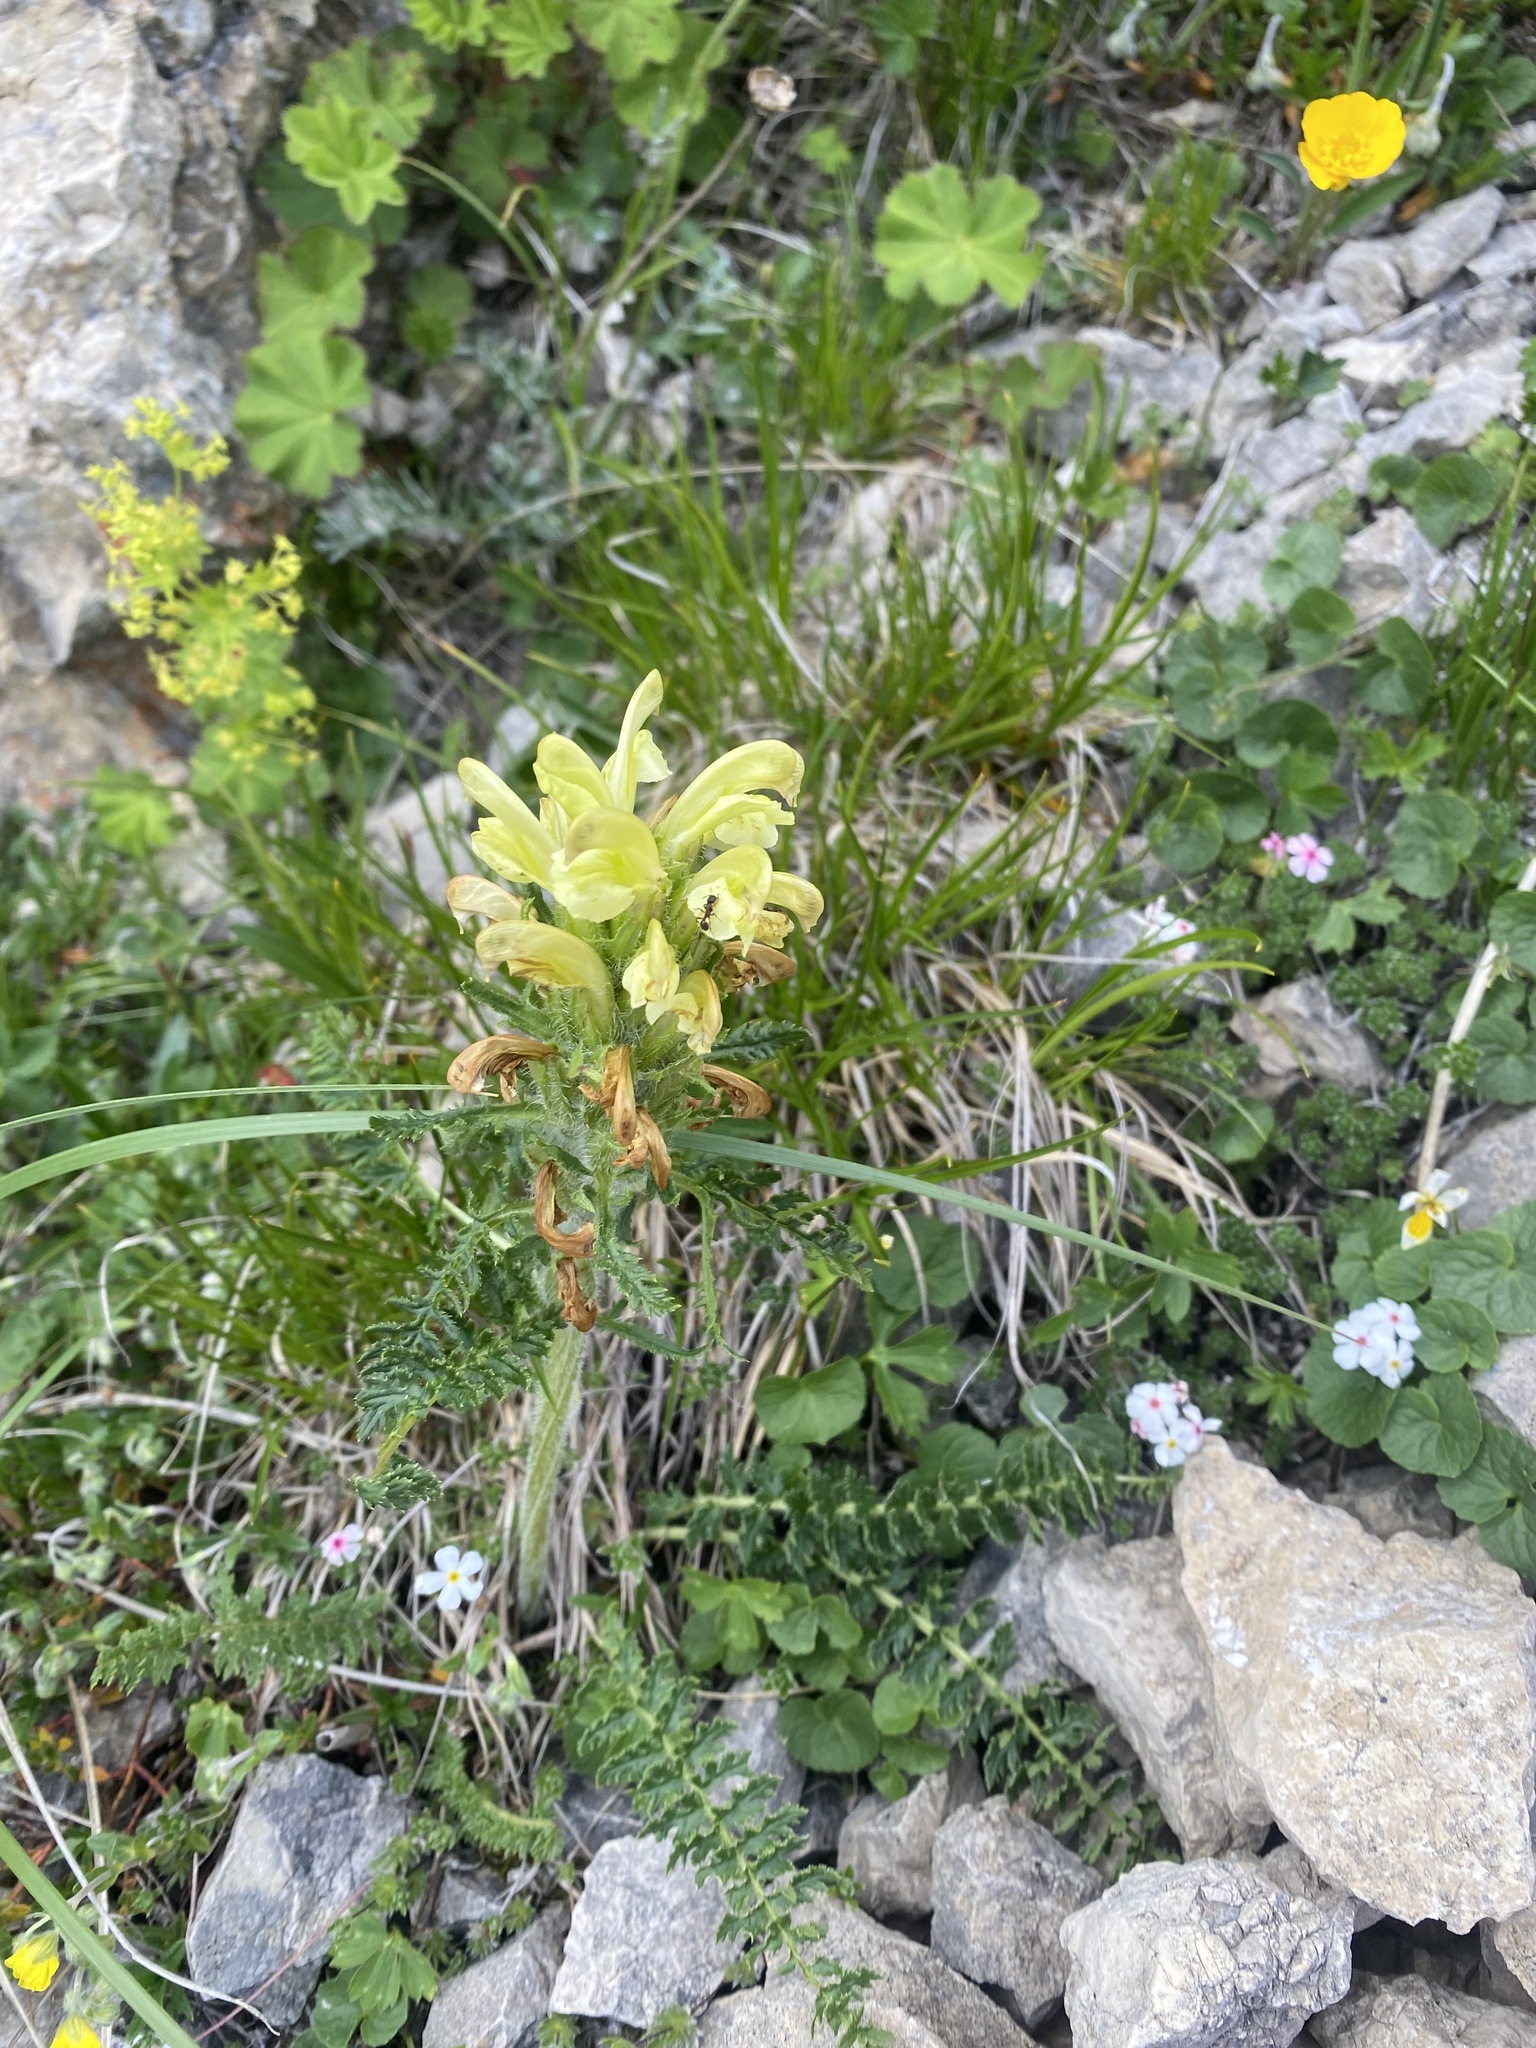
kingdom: Plantae
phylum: Tracheophyta
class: Magnoliopsida
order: Lamiales
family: Orobanchaceae
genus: Pedicularis
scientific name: Pedicularis sibthorpii
